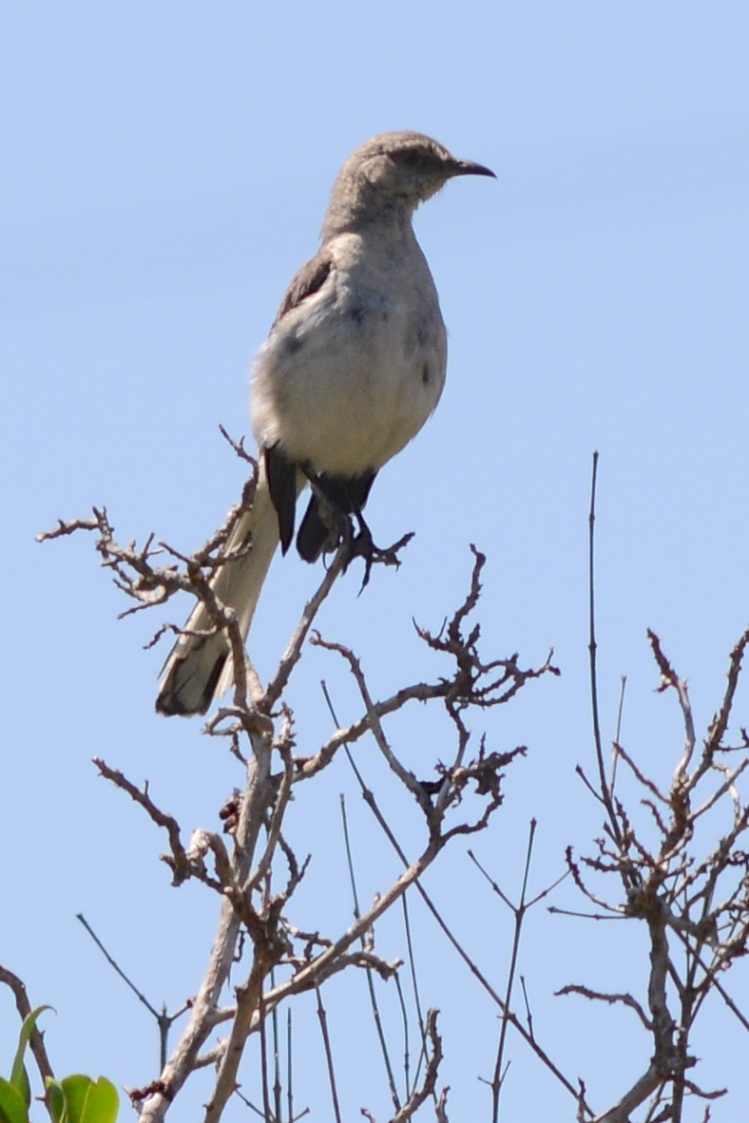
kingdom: Animalia
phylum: Chordata
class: Aves
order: Passeriformes
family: Mimidae
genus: Mimus
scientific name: Mimus polyglottos
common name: Northern mockingbird
